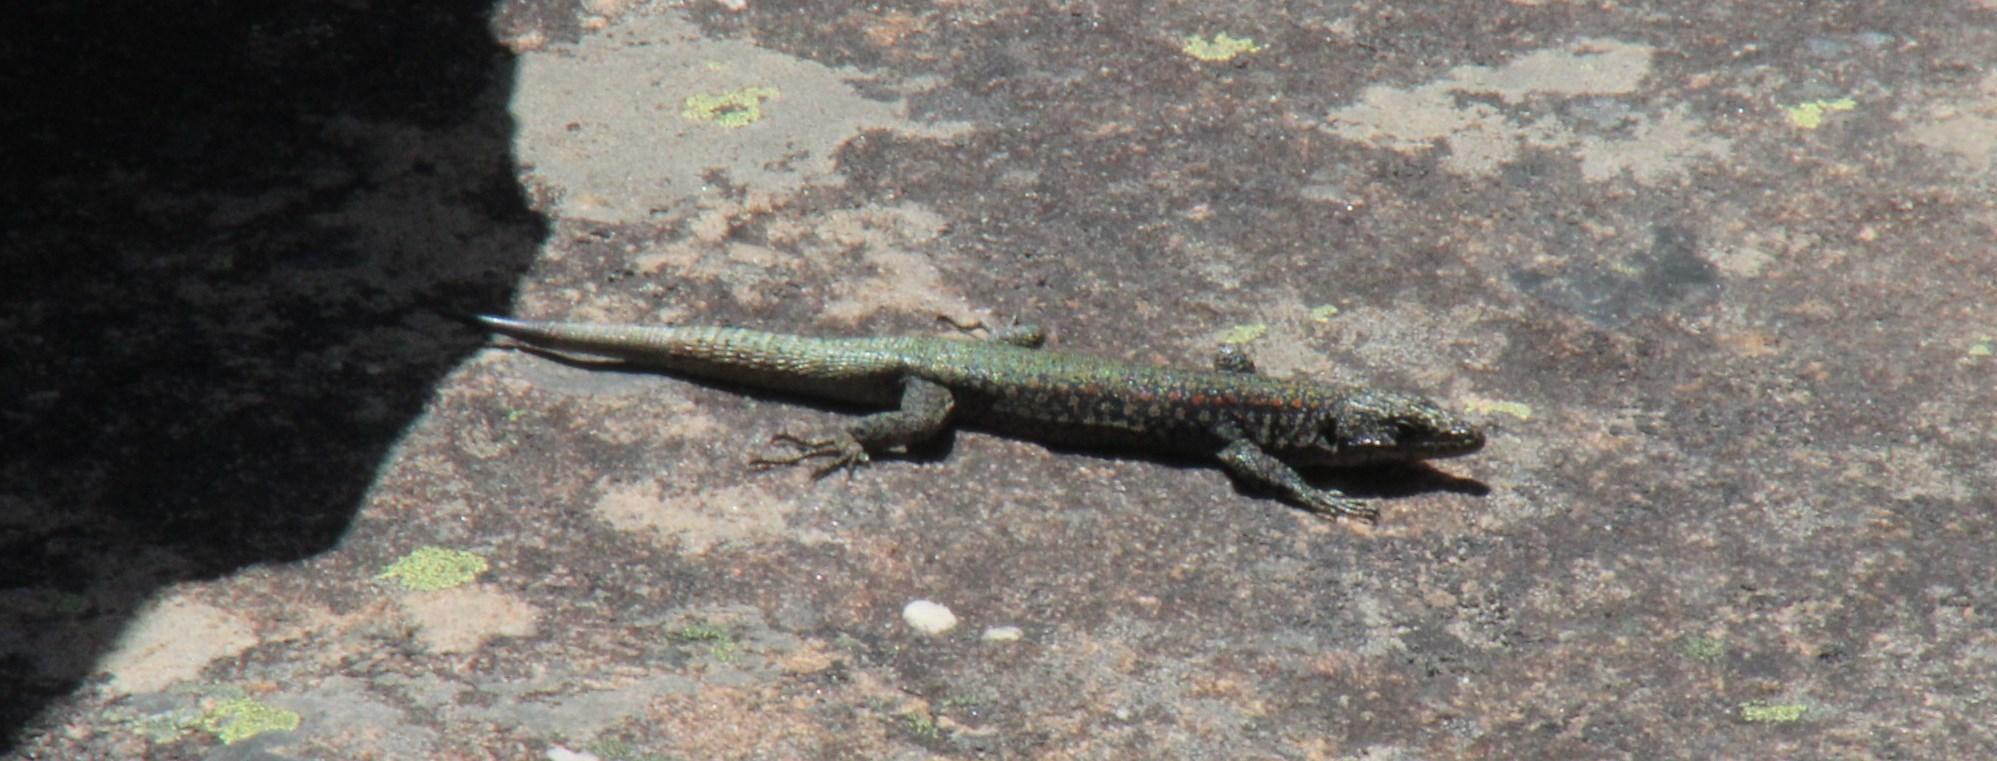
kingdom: Animalia
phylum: Chordata
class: Squamata
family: Lacertidae
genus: Australolacerta
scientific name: Australolacerta australis
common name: Southern rock lizard
